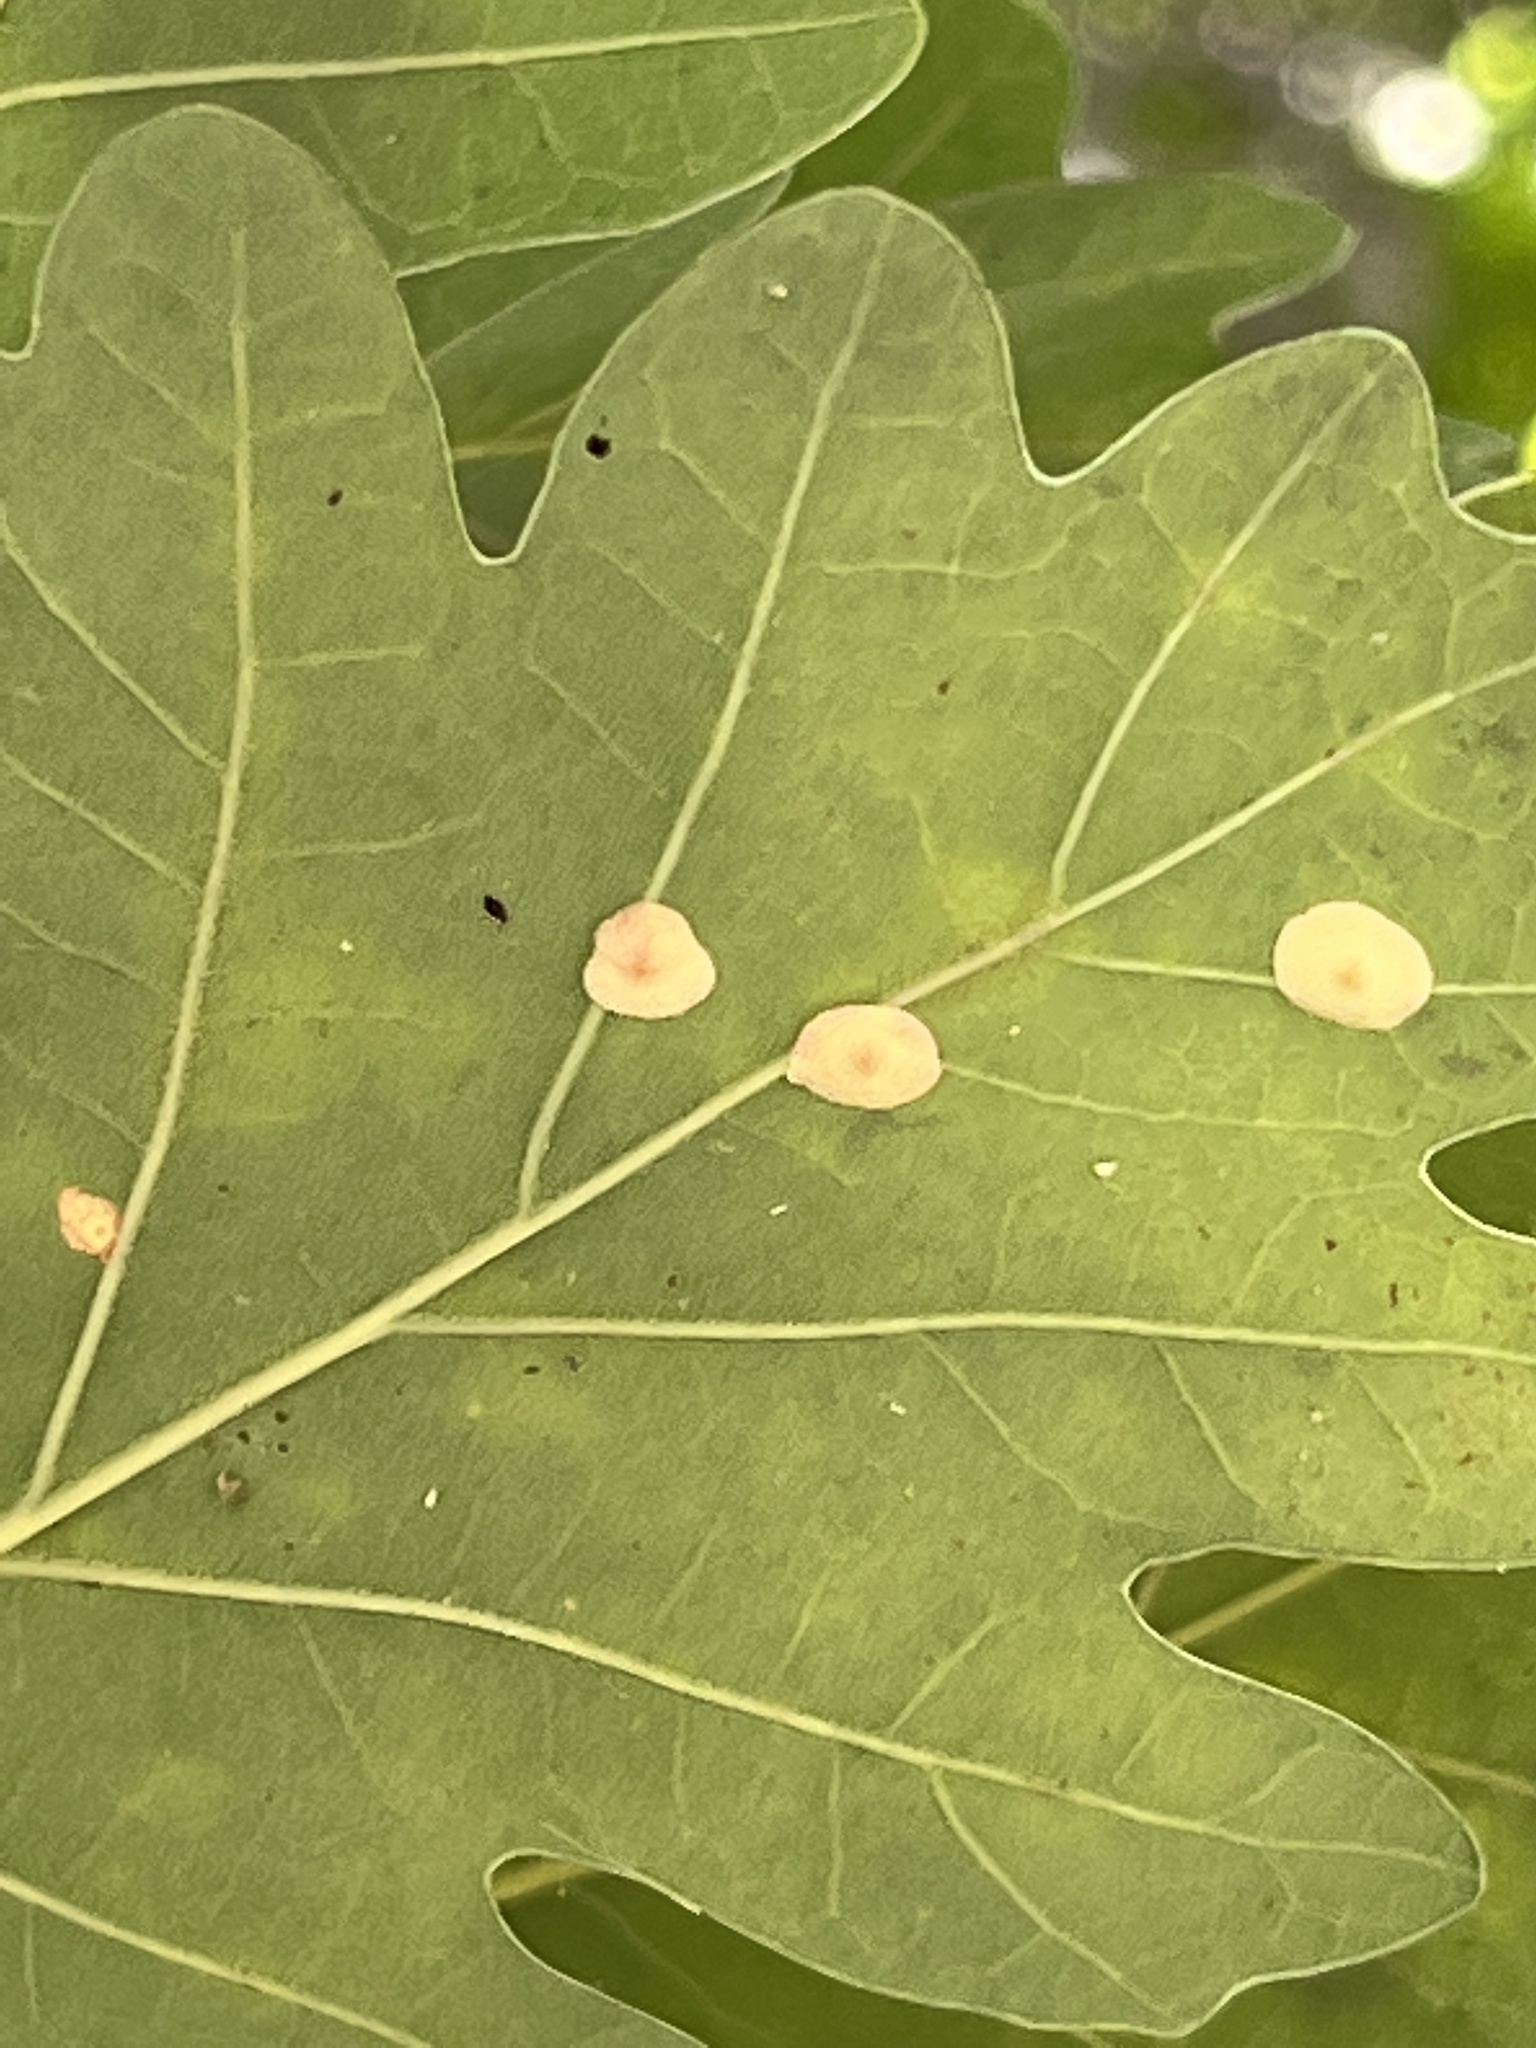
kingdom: Animalia
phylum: Arthropoda
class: Insecta
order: Hymenoptera
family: Cynipidae
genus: Neuroterus
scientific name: Neuroterus quercusbaccarum
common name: Common spangle gall
